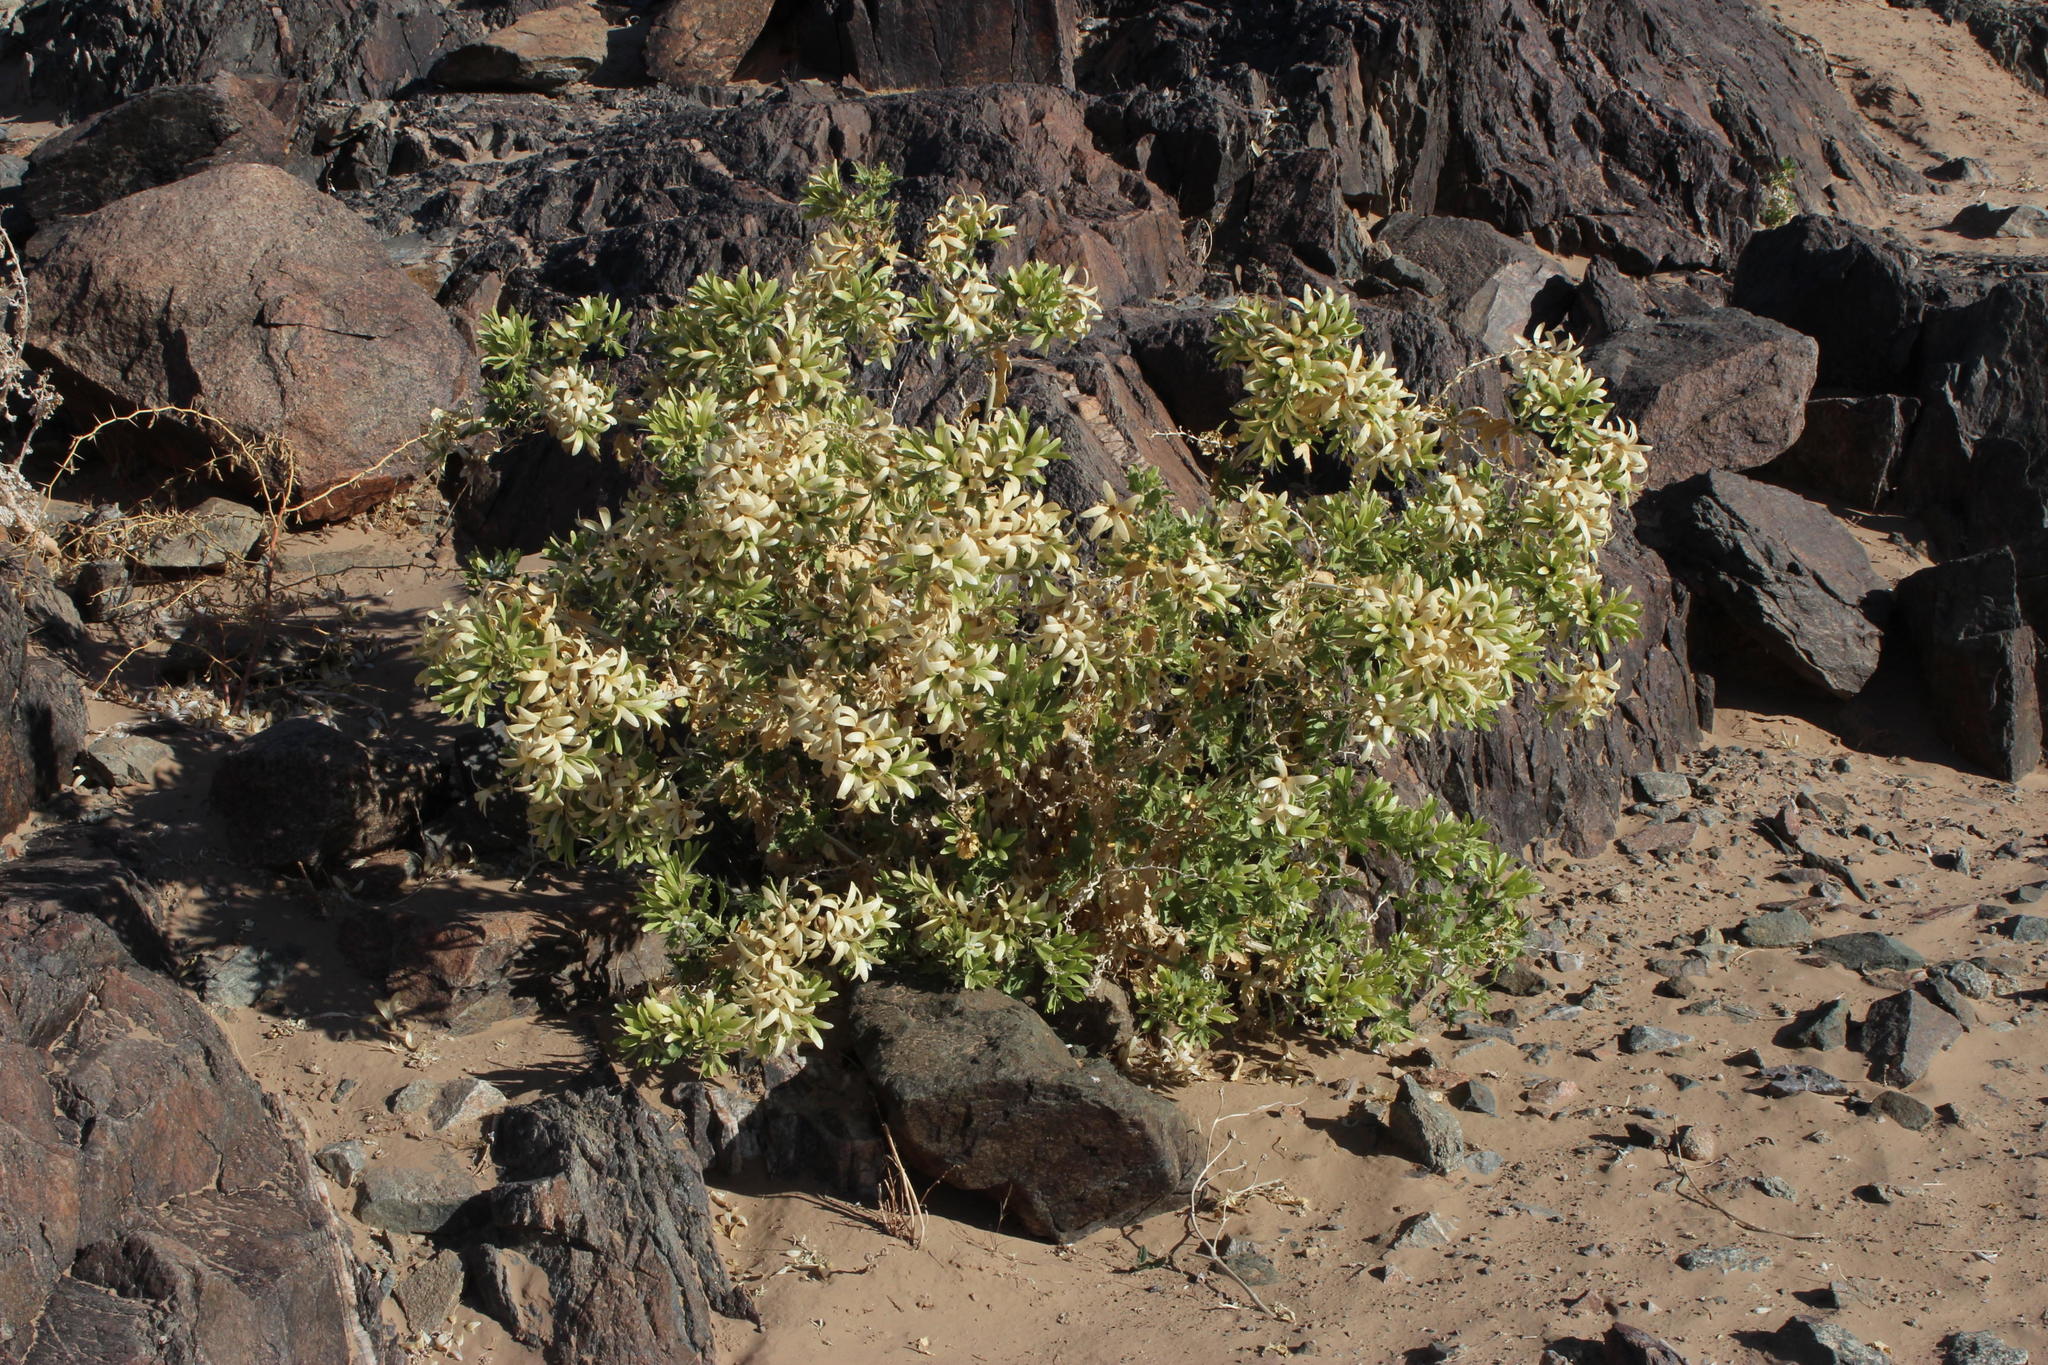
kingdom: Plantae
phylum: Tracheophyta
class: Magnoliopsida
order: Cornales
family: Loasaceae
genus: Kissenia
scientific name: Kissenia capensis
